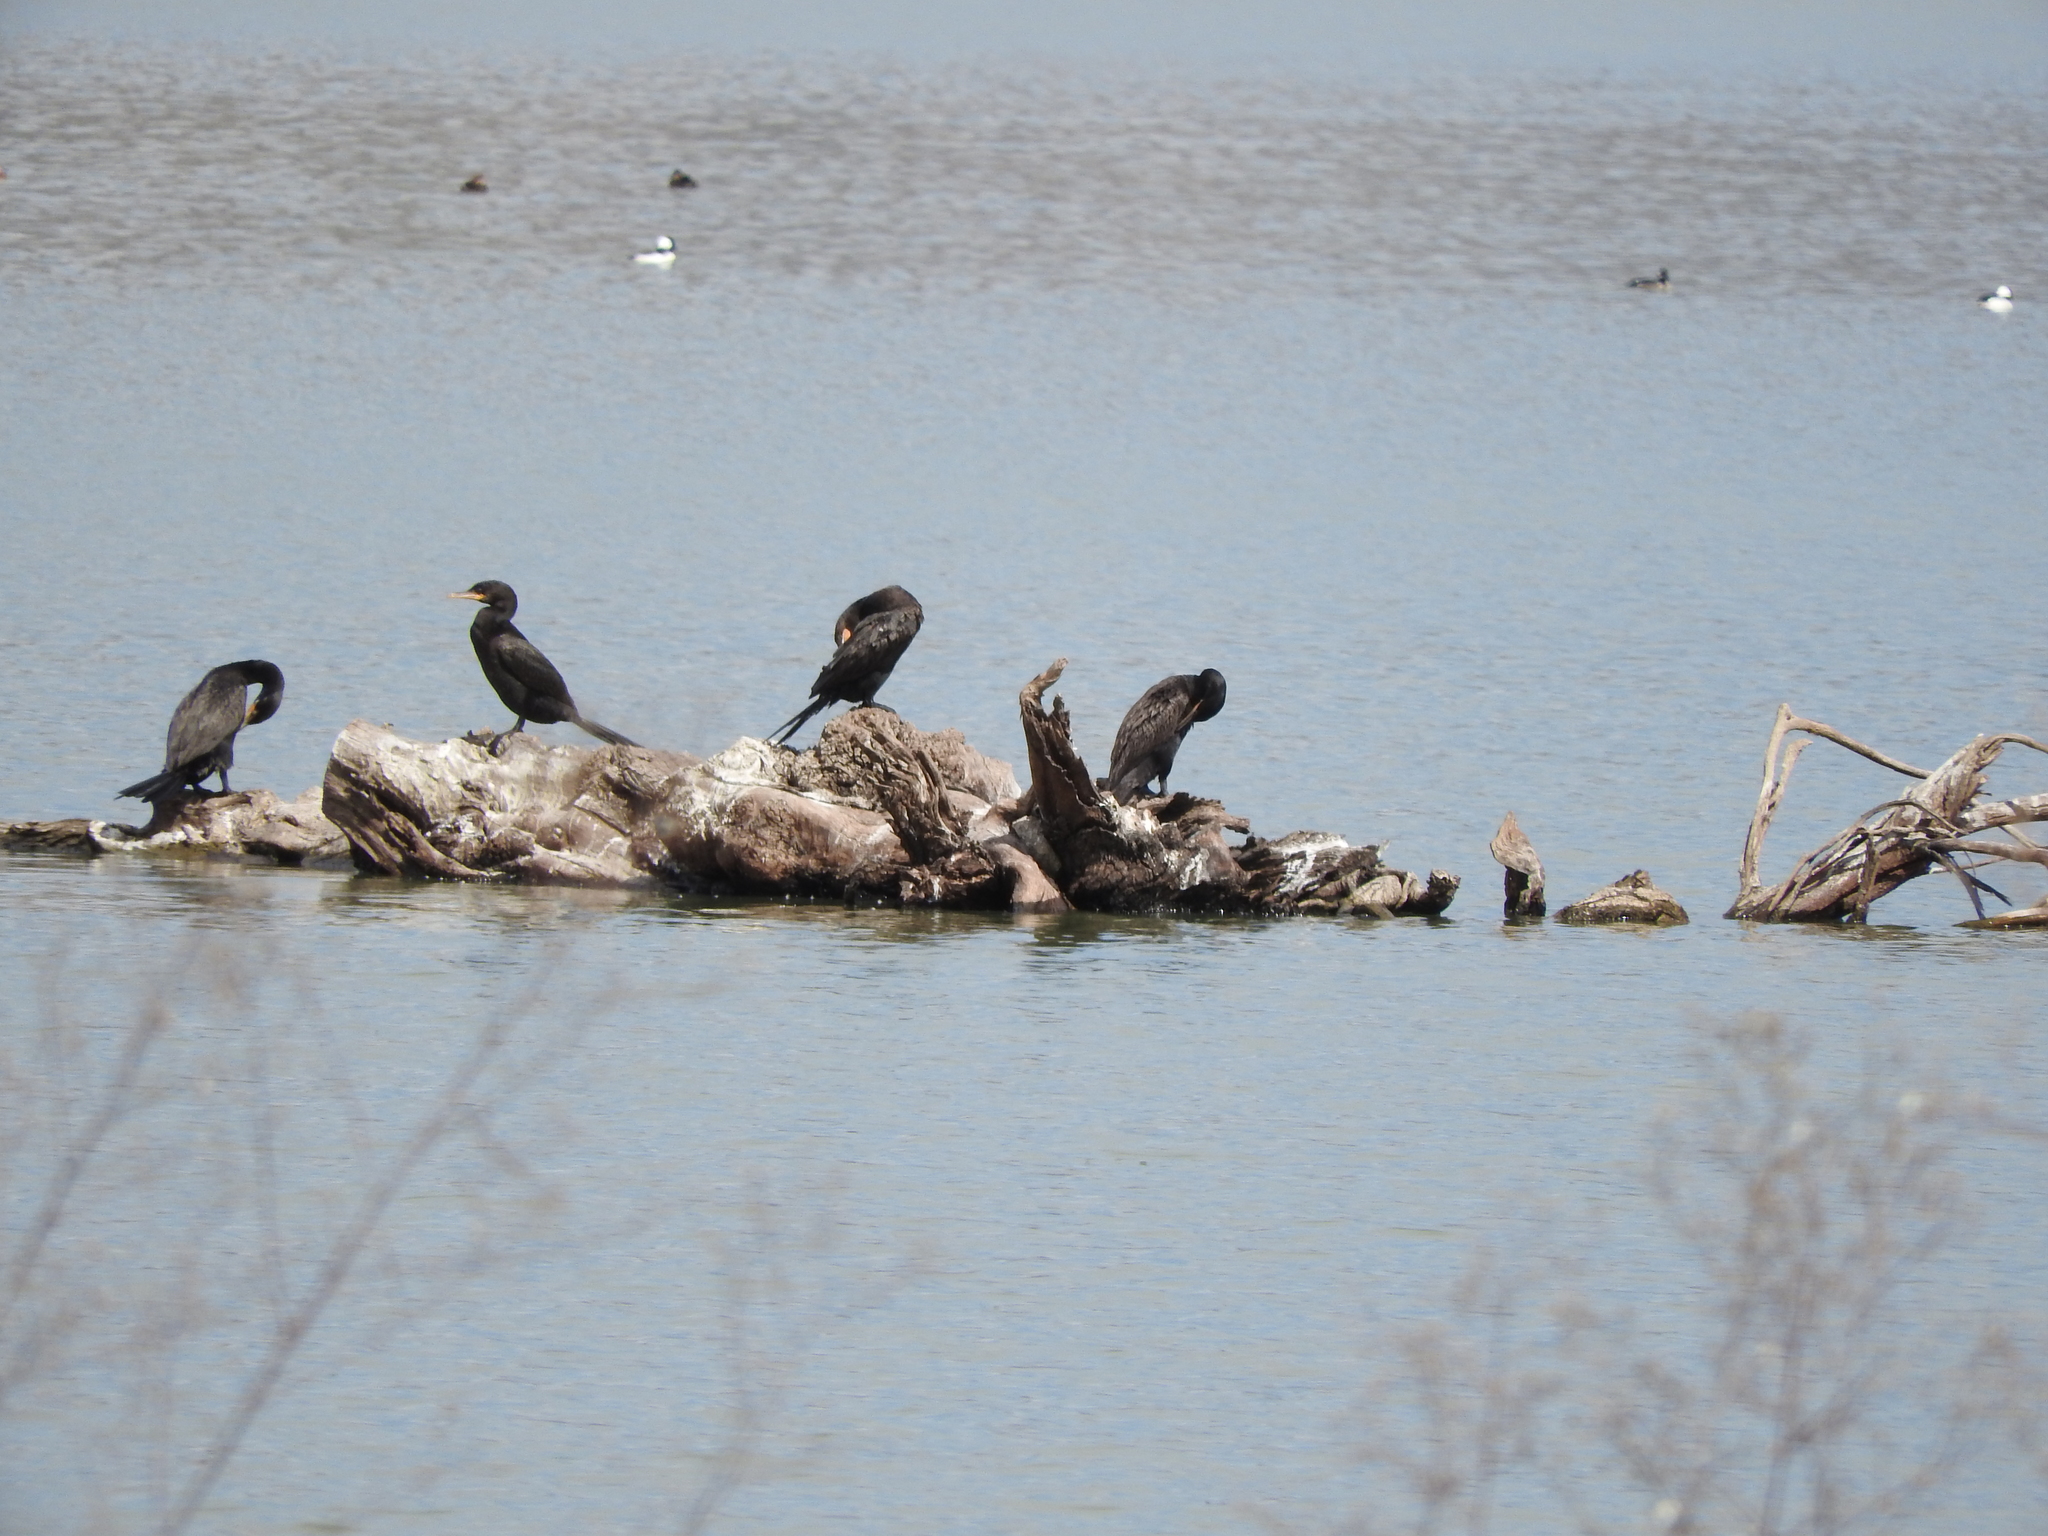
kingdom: Animalia
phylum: Chordata
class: Aves
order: Suliformes
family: Phalacrocoracidae
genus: Phalacrocorax
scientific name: Phalacrocorax brasilianus
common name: Neotropic cormorant
